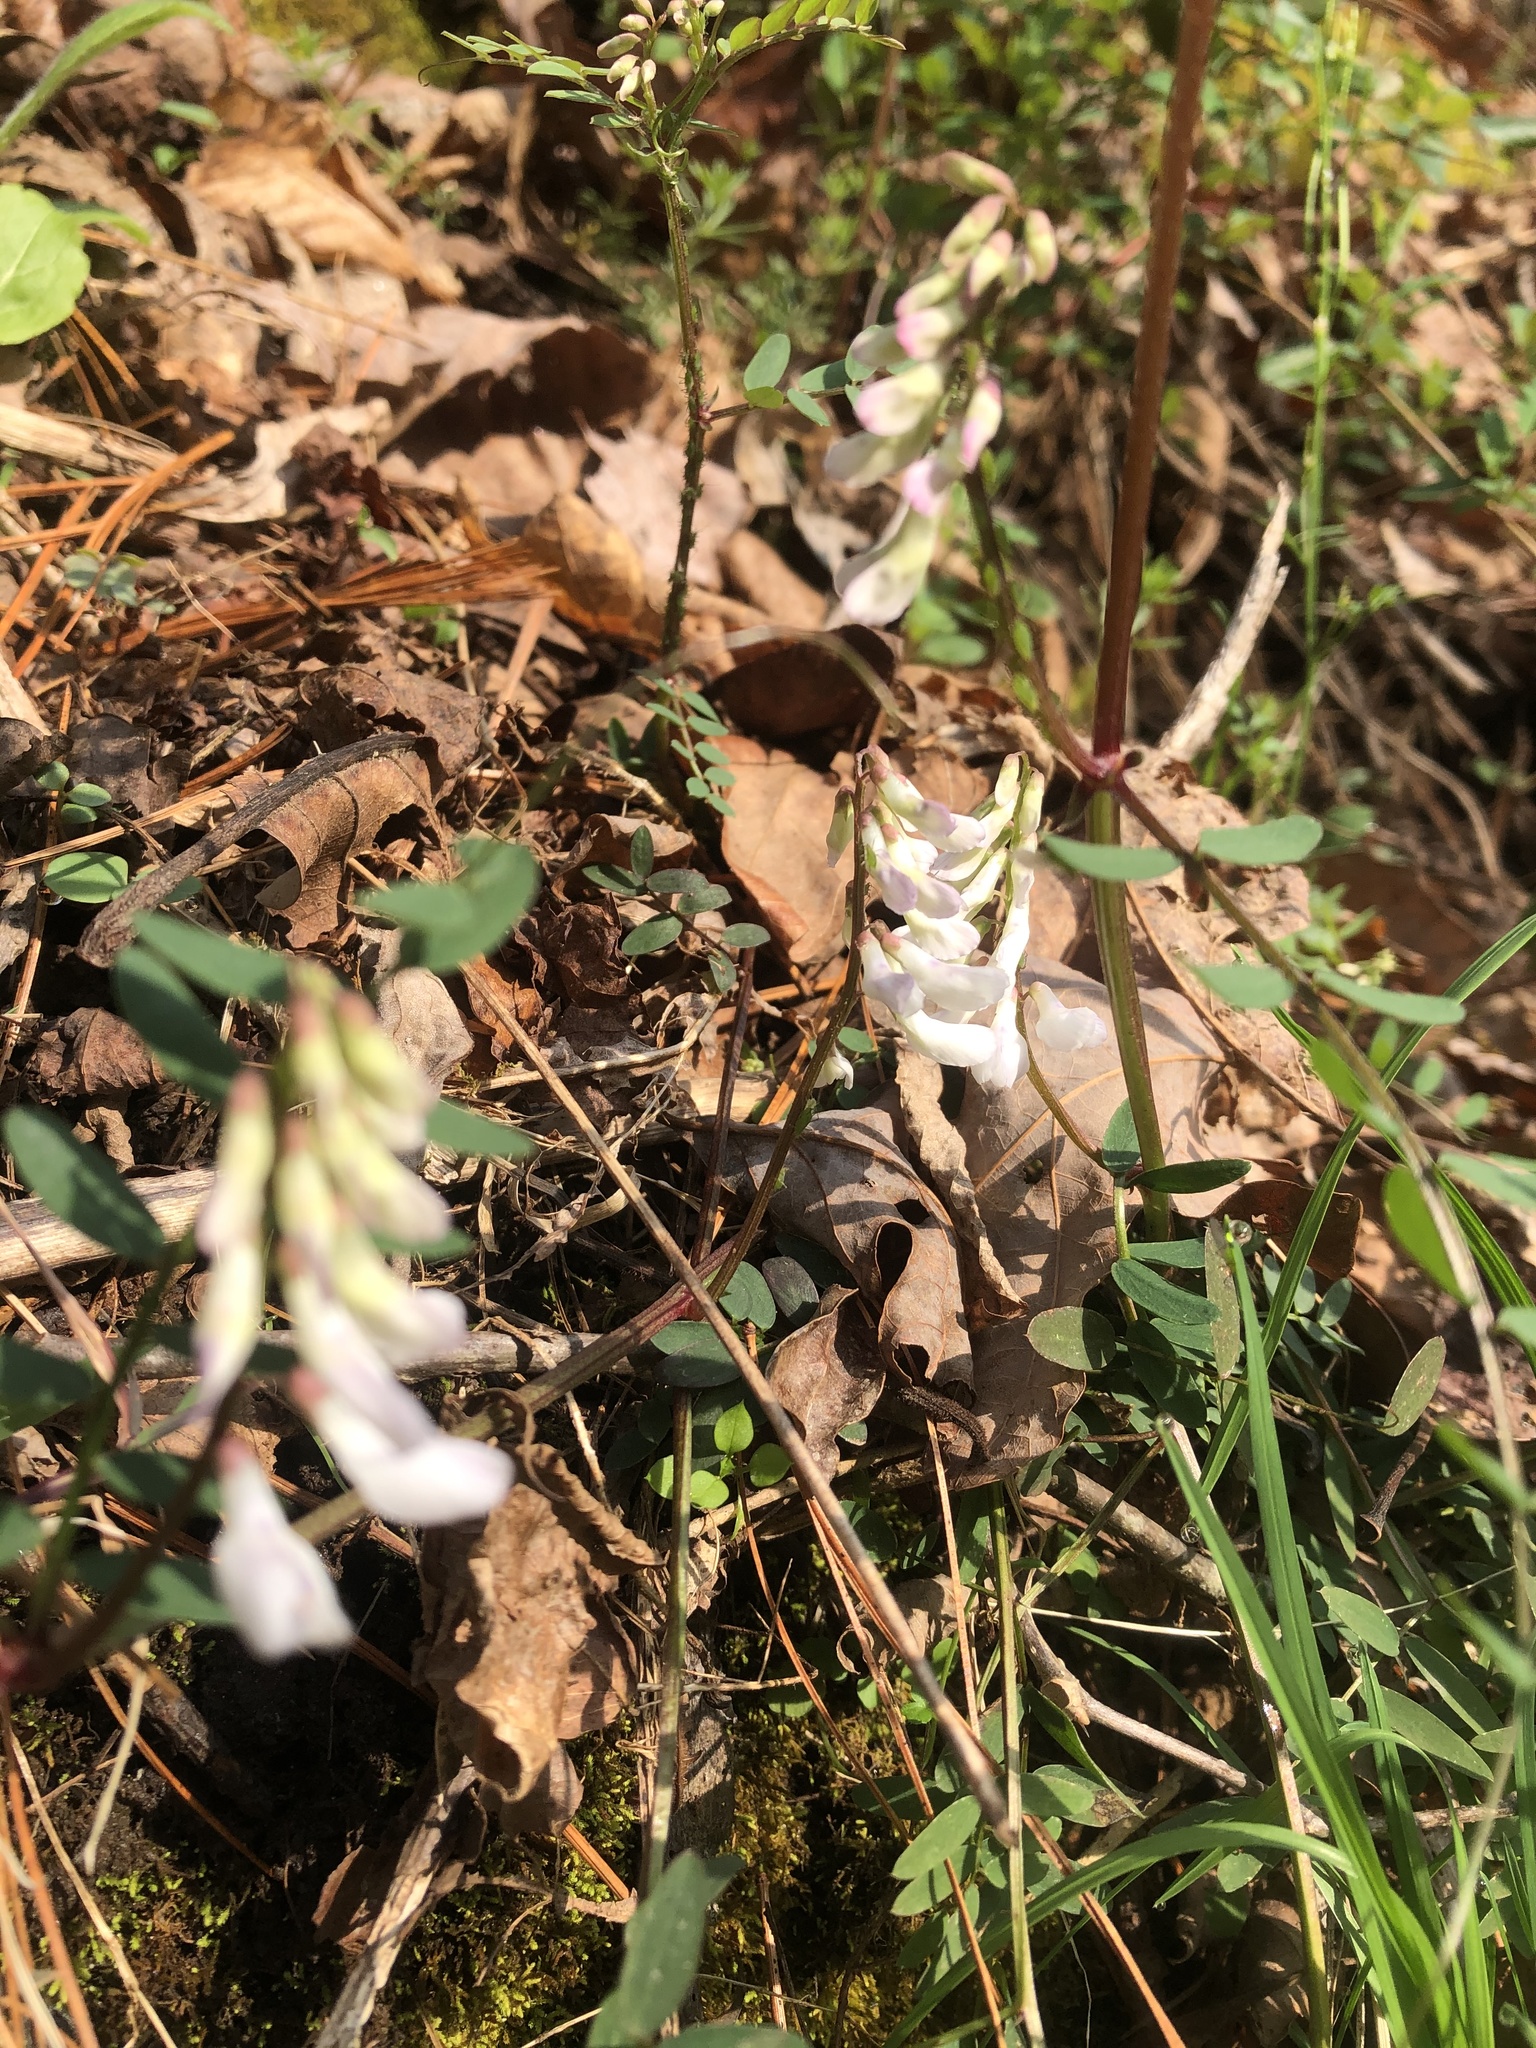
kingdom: Plantae
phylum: Tracheophyta
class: Magnoliopsida
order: Fabales
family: Fabaceae
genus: Vicia
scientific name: Vicia caroliniana
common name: Carolina vetch
